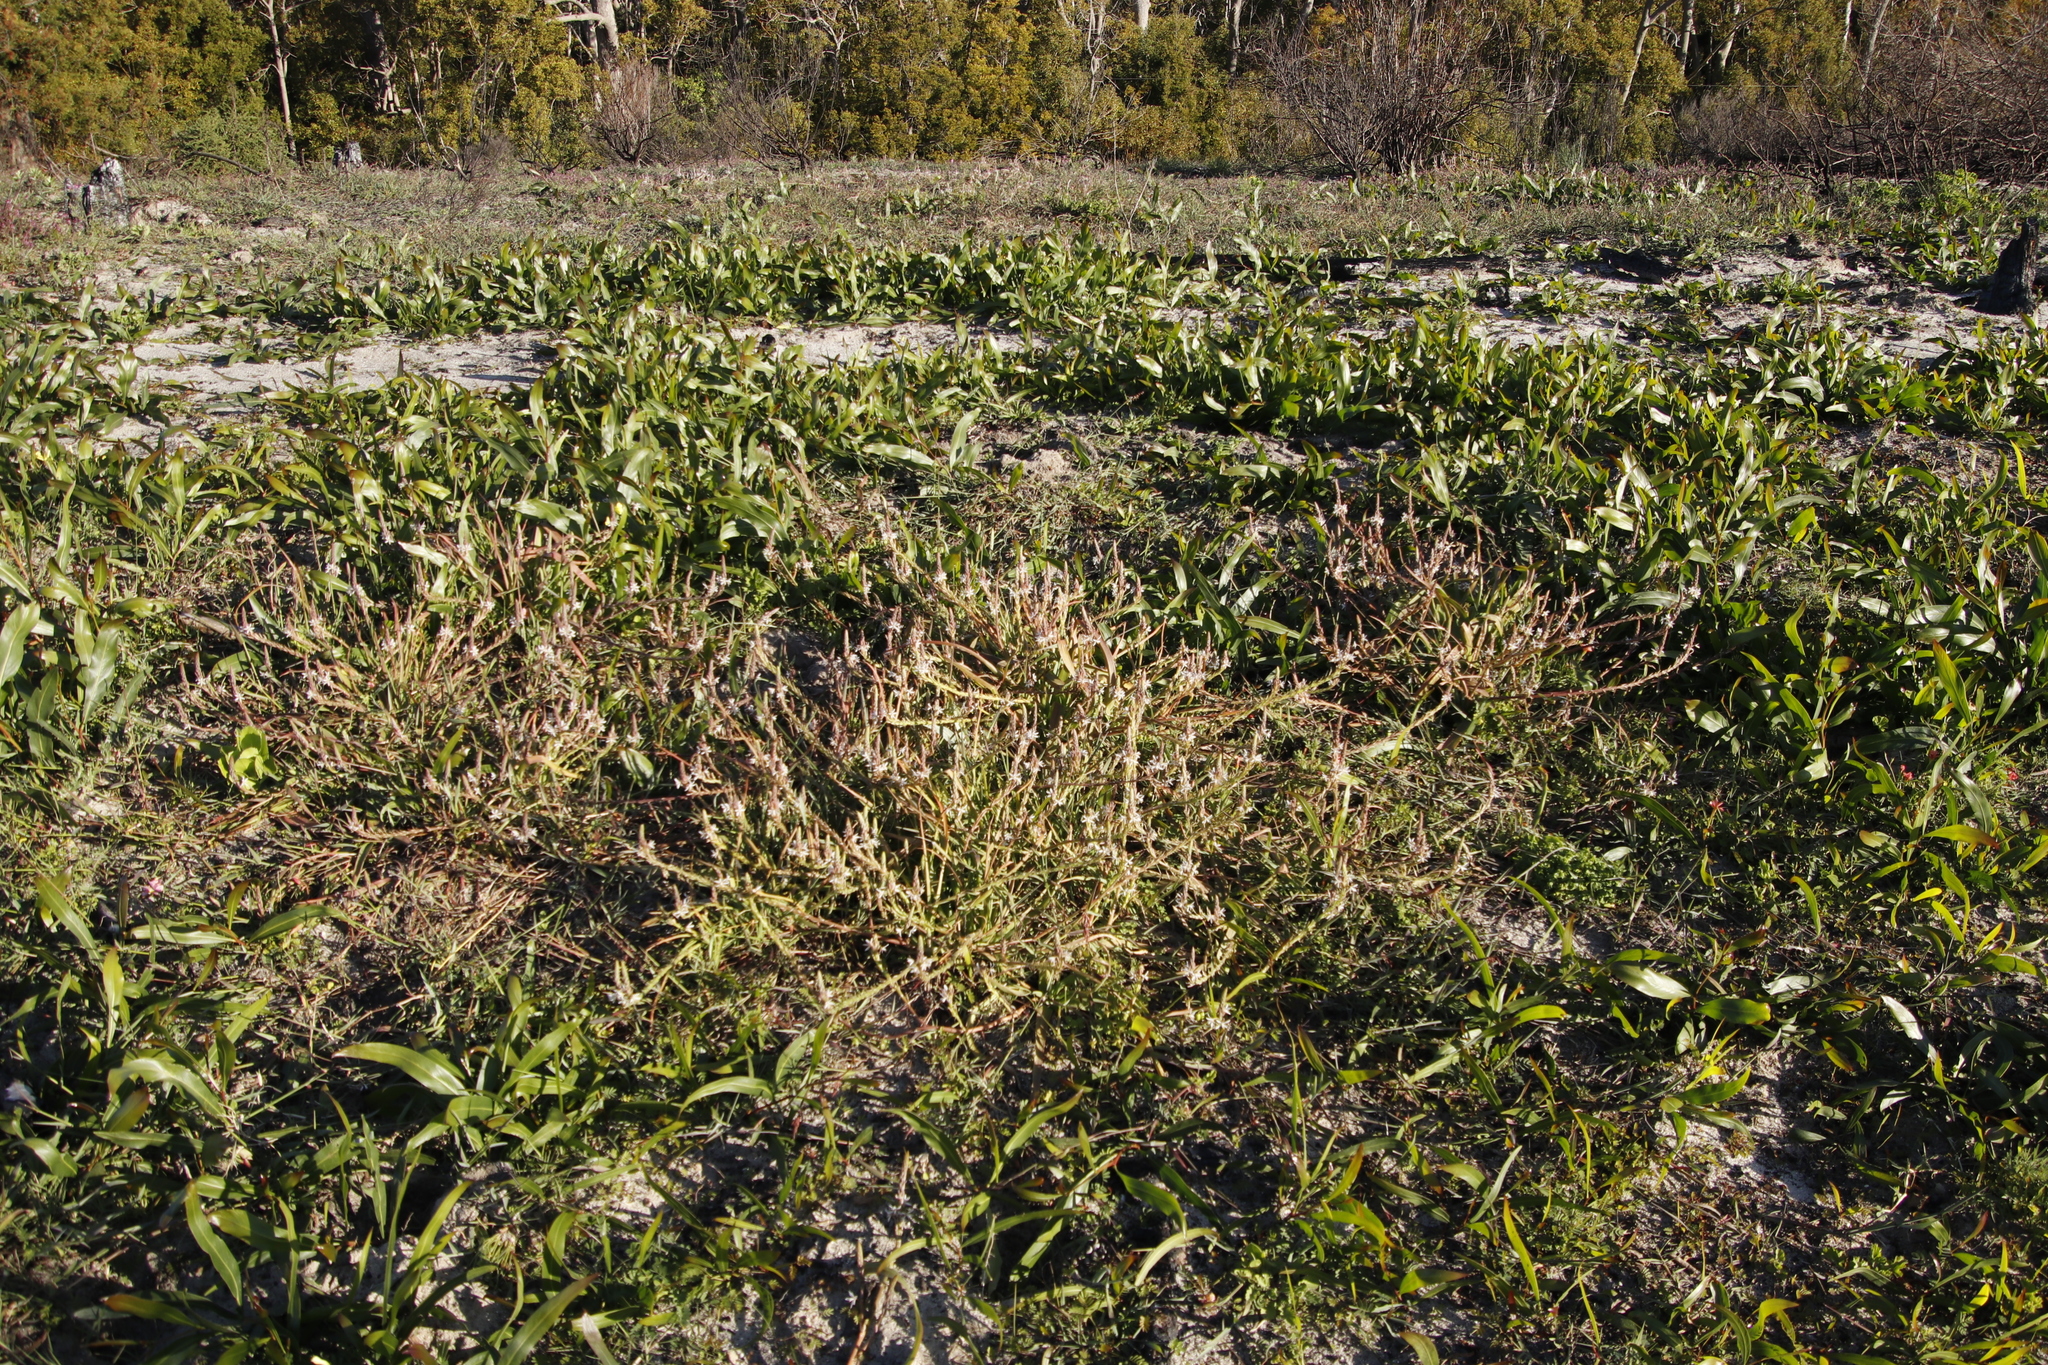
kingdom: Plantae
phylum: Tracheophyta
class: Liliopsida
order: Asparagales
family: Asphodelaceae
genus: Trachyandra
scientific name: Trachyandra ciliata
